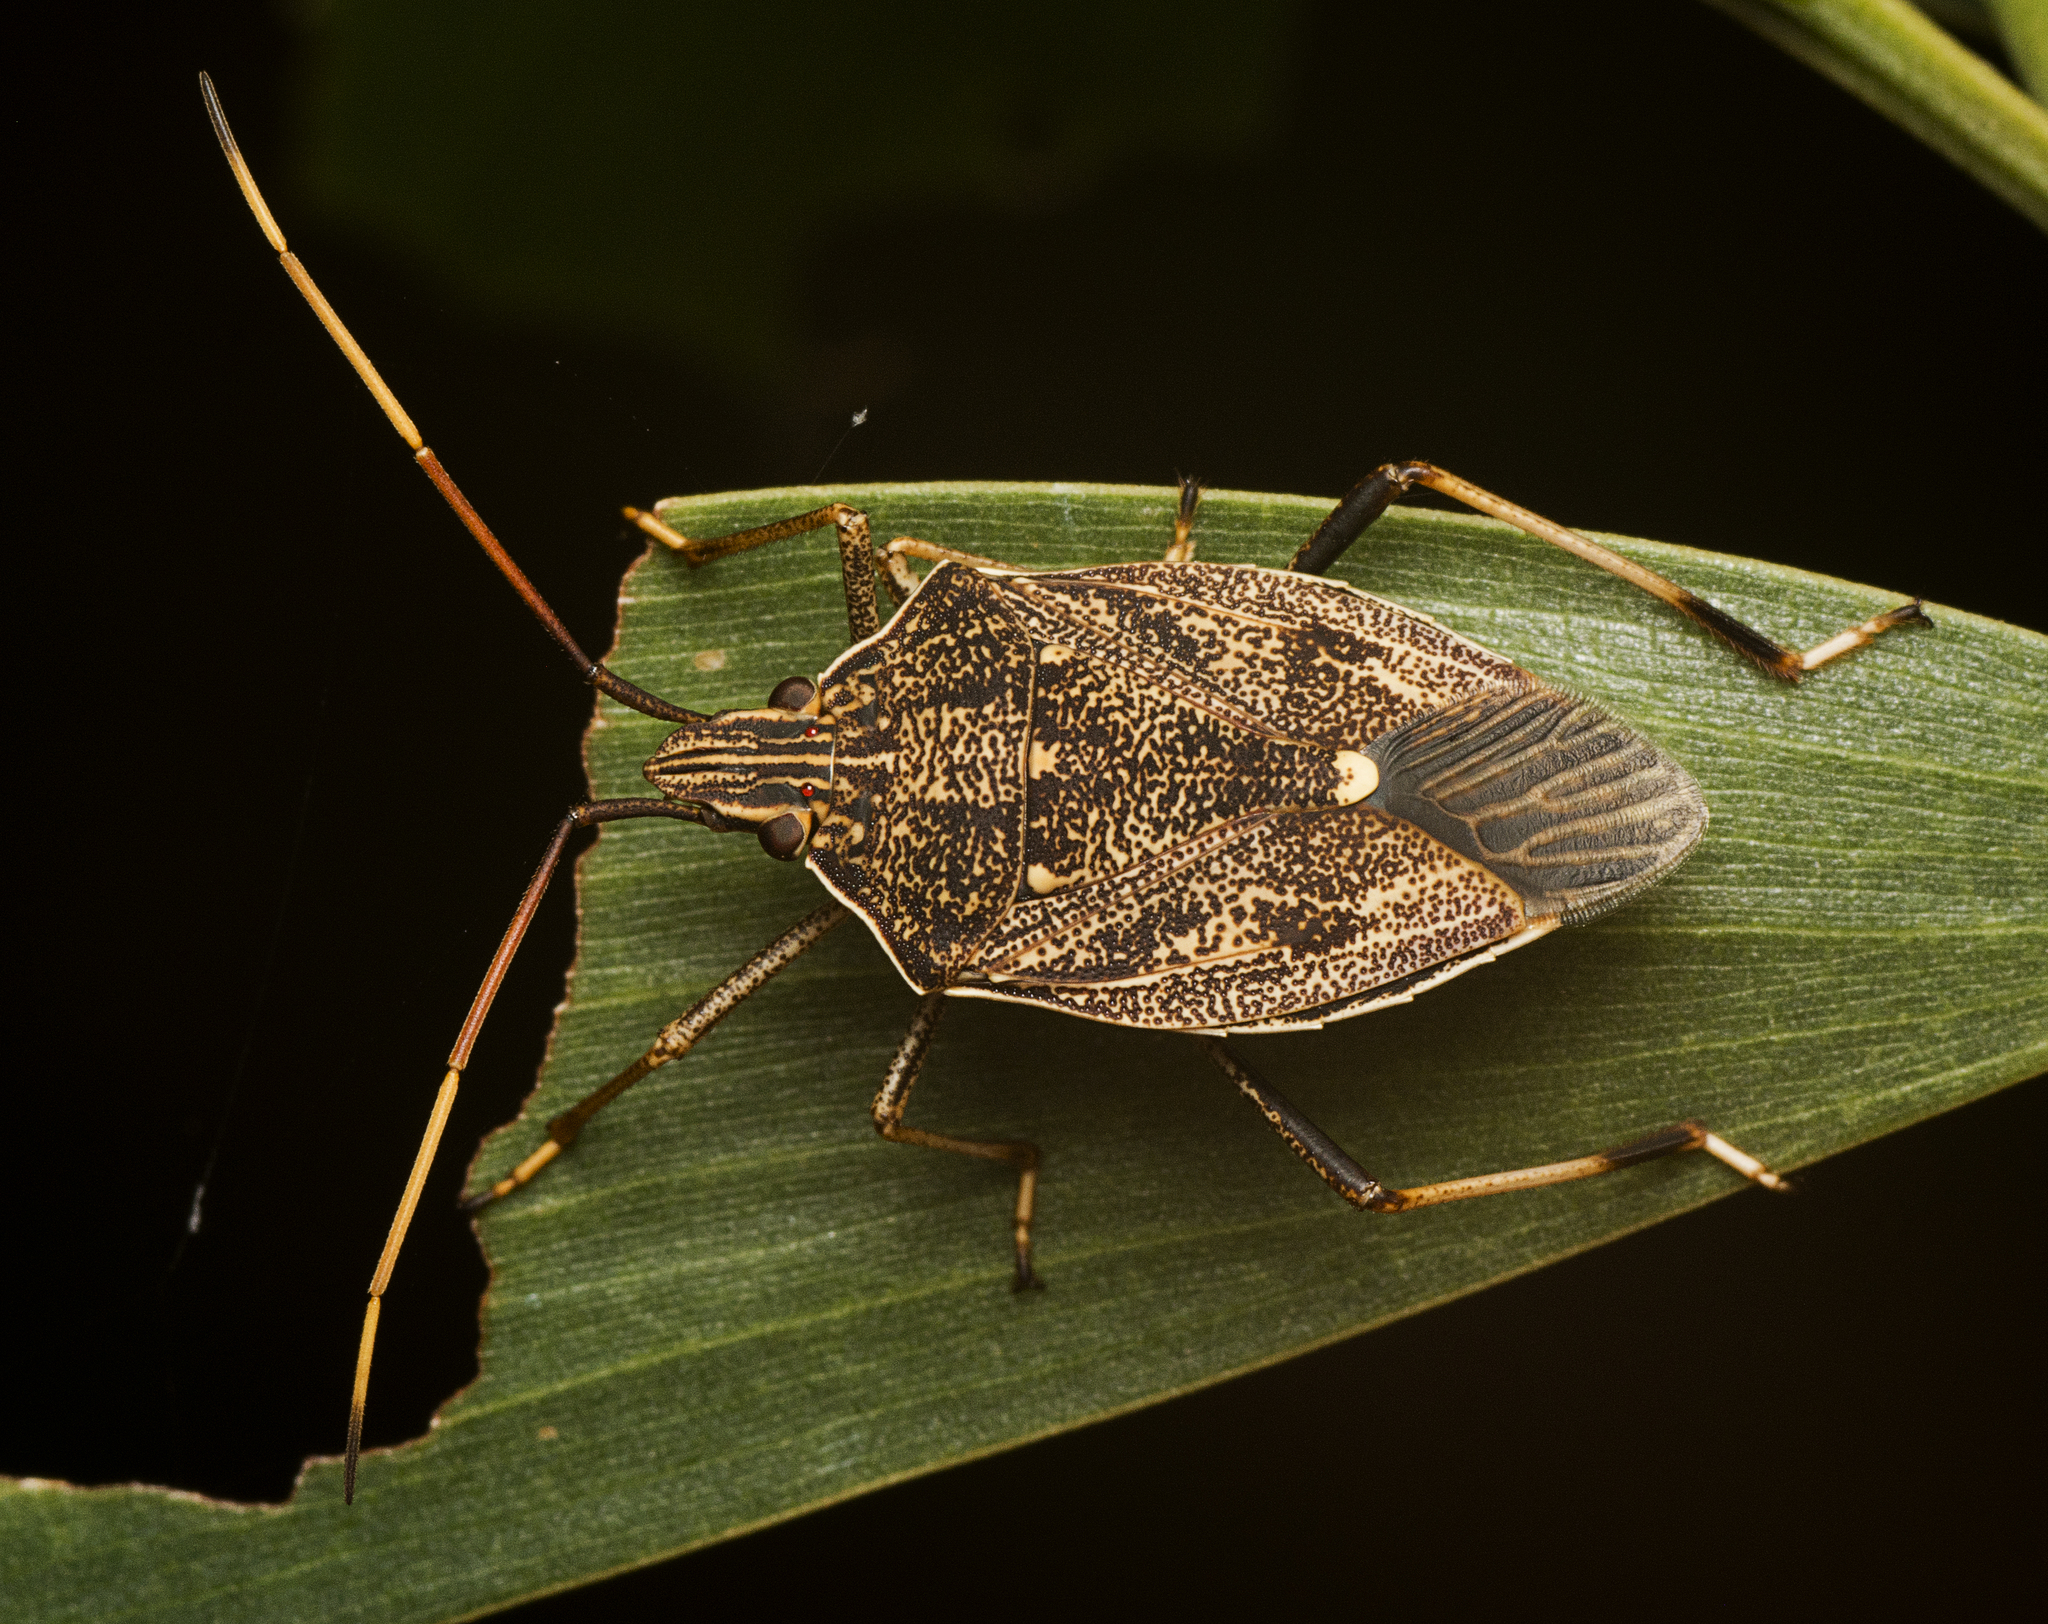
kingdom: Animalia
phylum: Arthropoda
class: Insecta
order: Hemiptera
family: Pentatomidae
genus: Poecilometis
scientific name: Poecilometis
